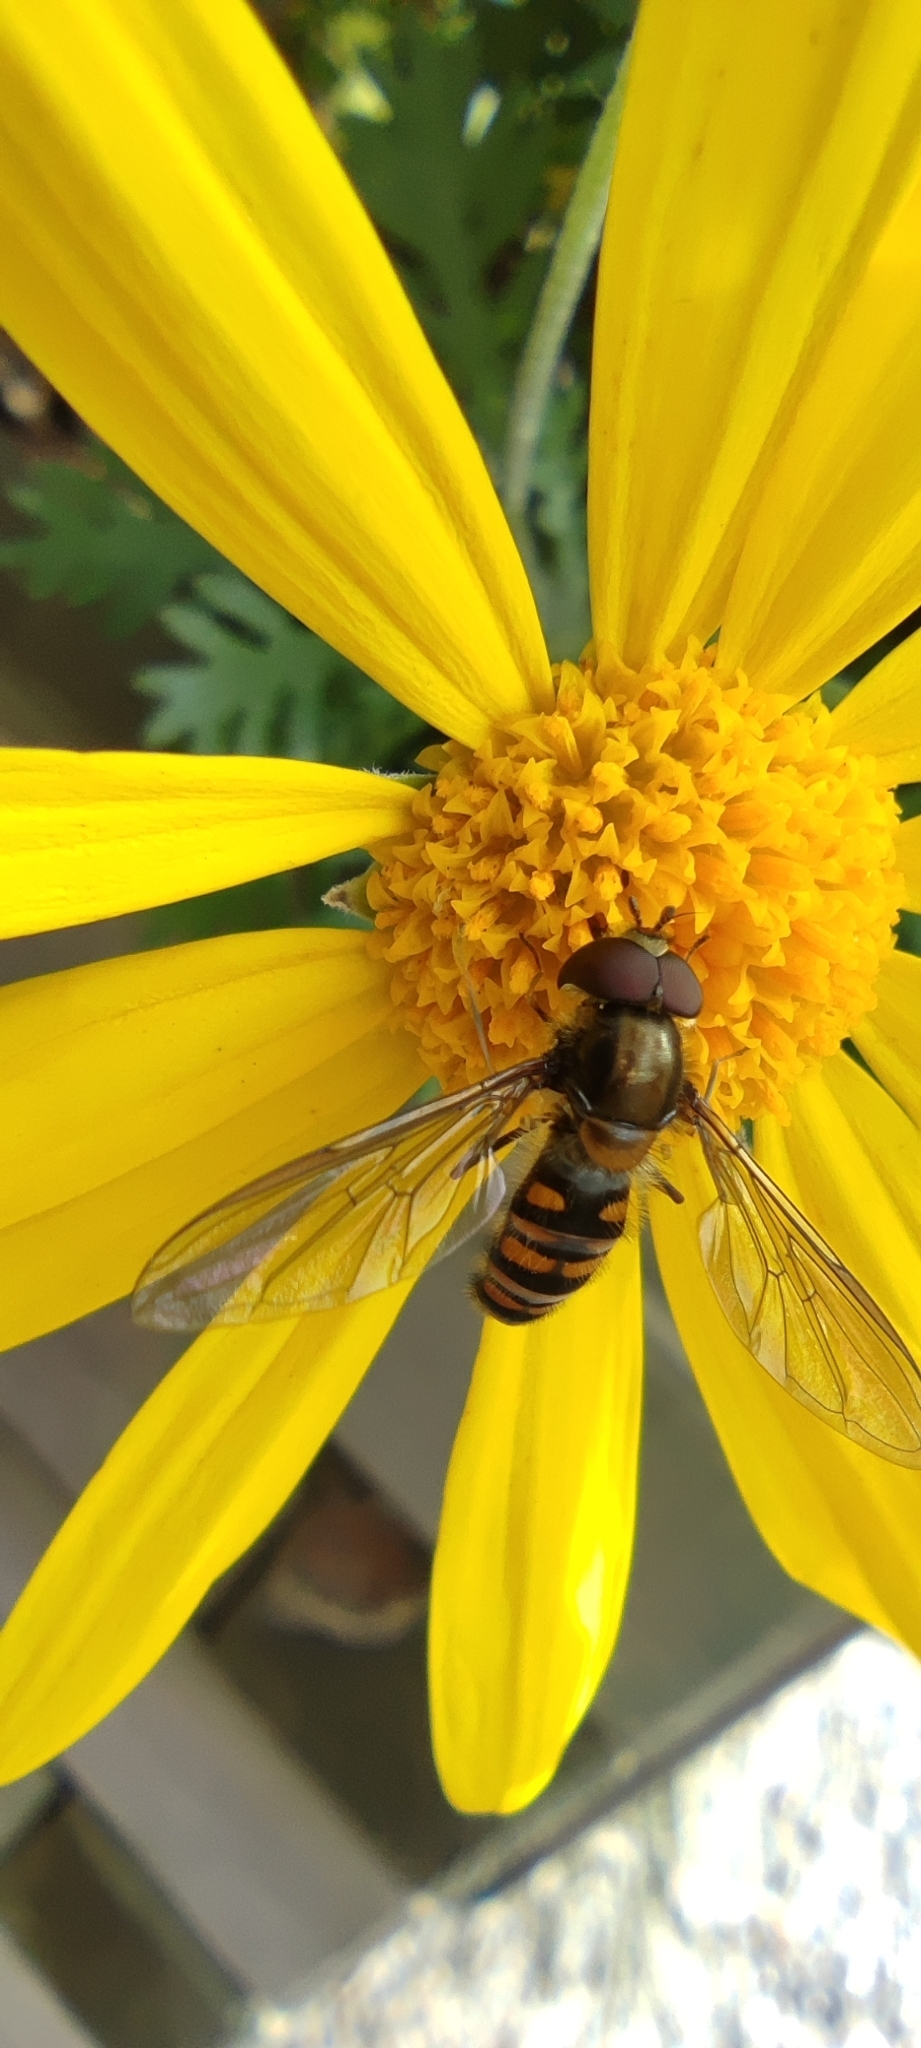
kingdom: Animalia
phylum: Arthropoda
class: Insecta
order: Diptera
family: Syrphidae
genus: Episyrphus
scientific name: Episyrphus balteatus
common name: Marmalade hoverfly
